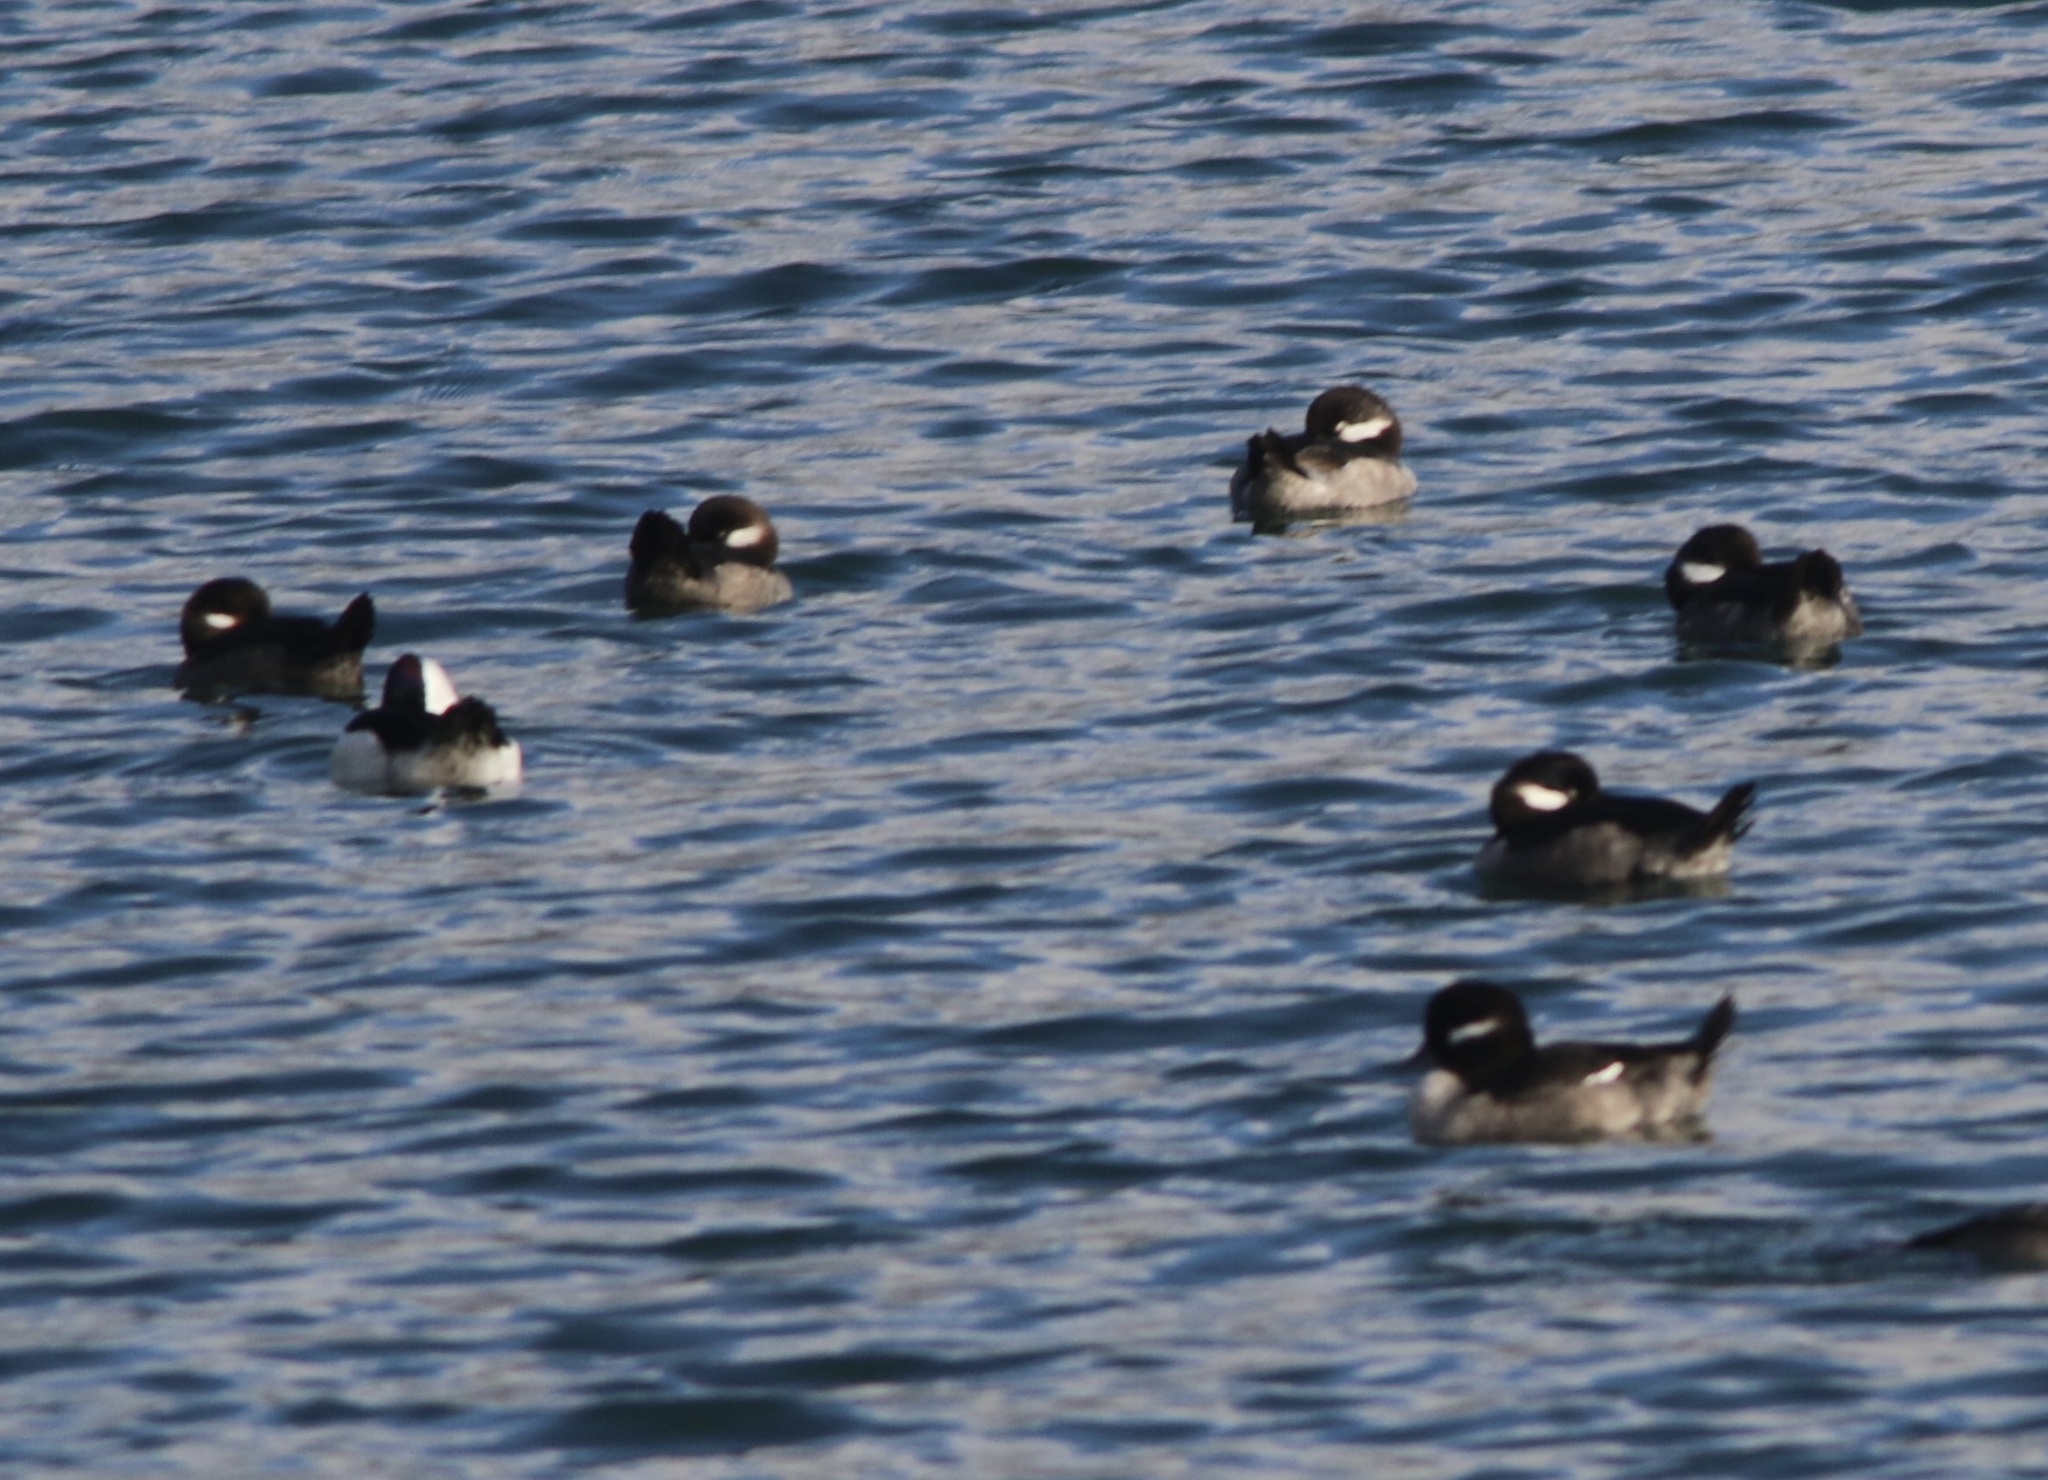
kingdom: Animalia
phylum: Chordata
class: Aves
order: Anseriformes
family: Anatidae
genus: Bucephala
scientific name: Bucephala albeola
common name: Bufflehead
